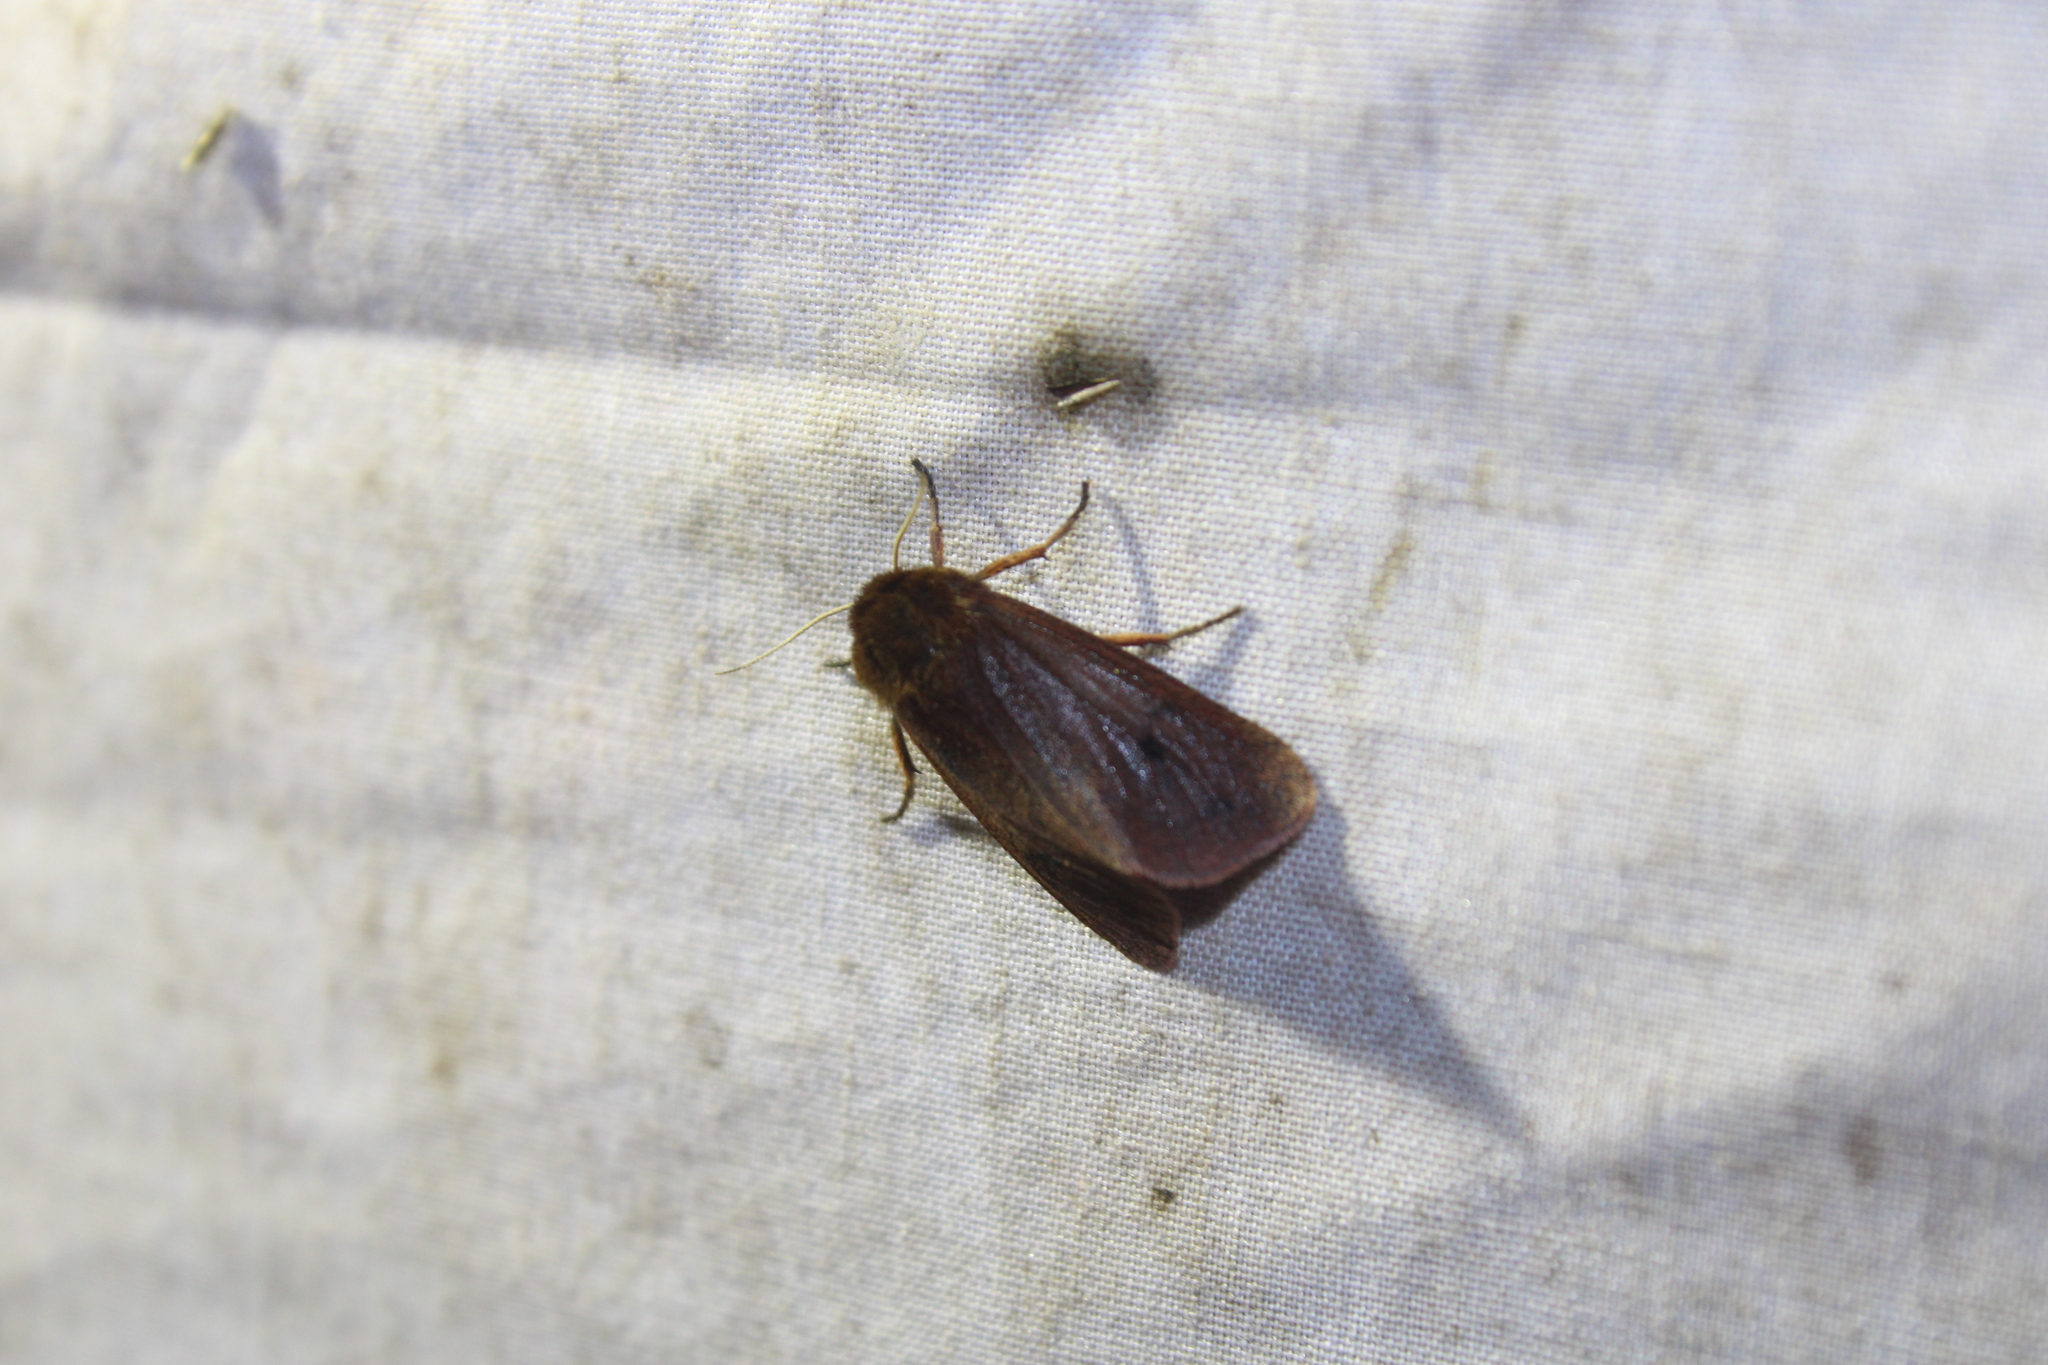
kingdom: Animalia
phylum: Arthropoda
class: Insecta
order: Lepidoptera
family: Erebidae
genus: Phragmatobia
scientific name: Phragmatobia fuliginosa
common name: Ruby tiger
